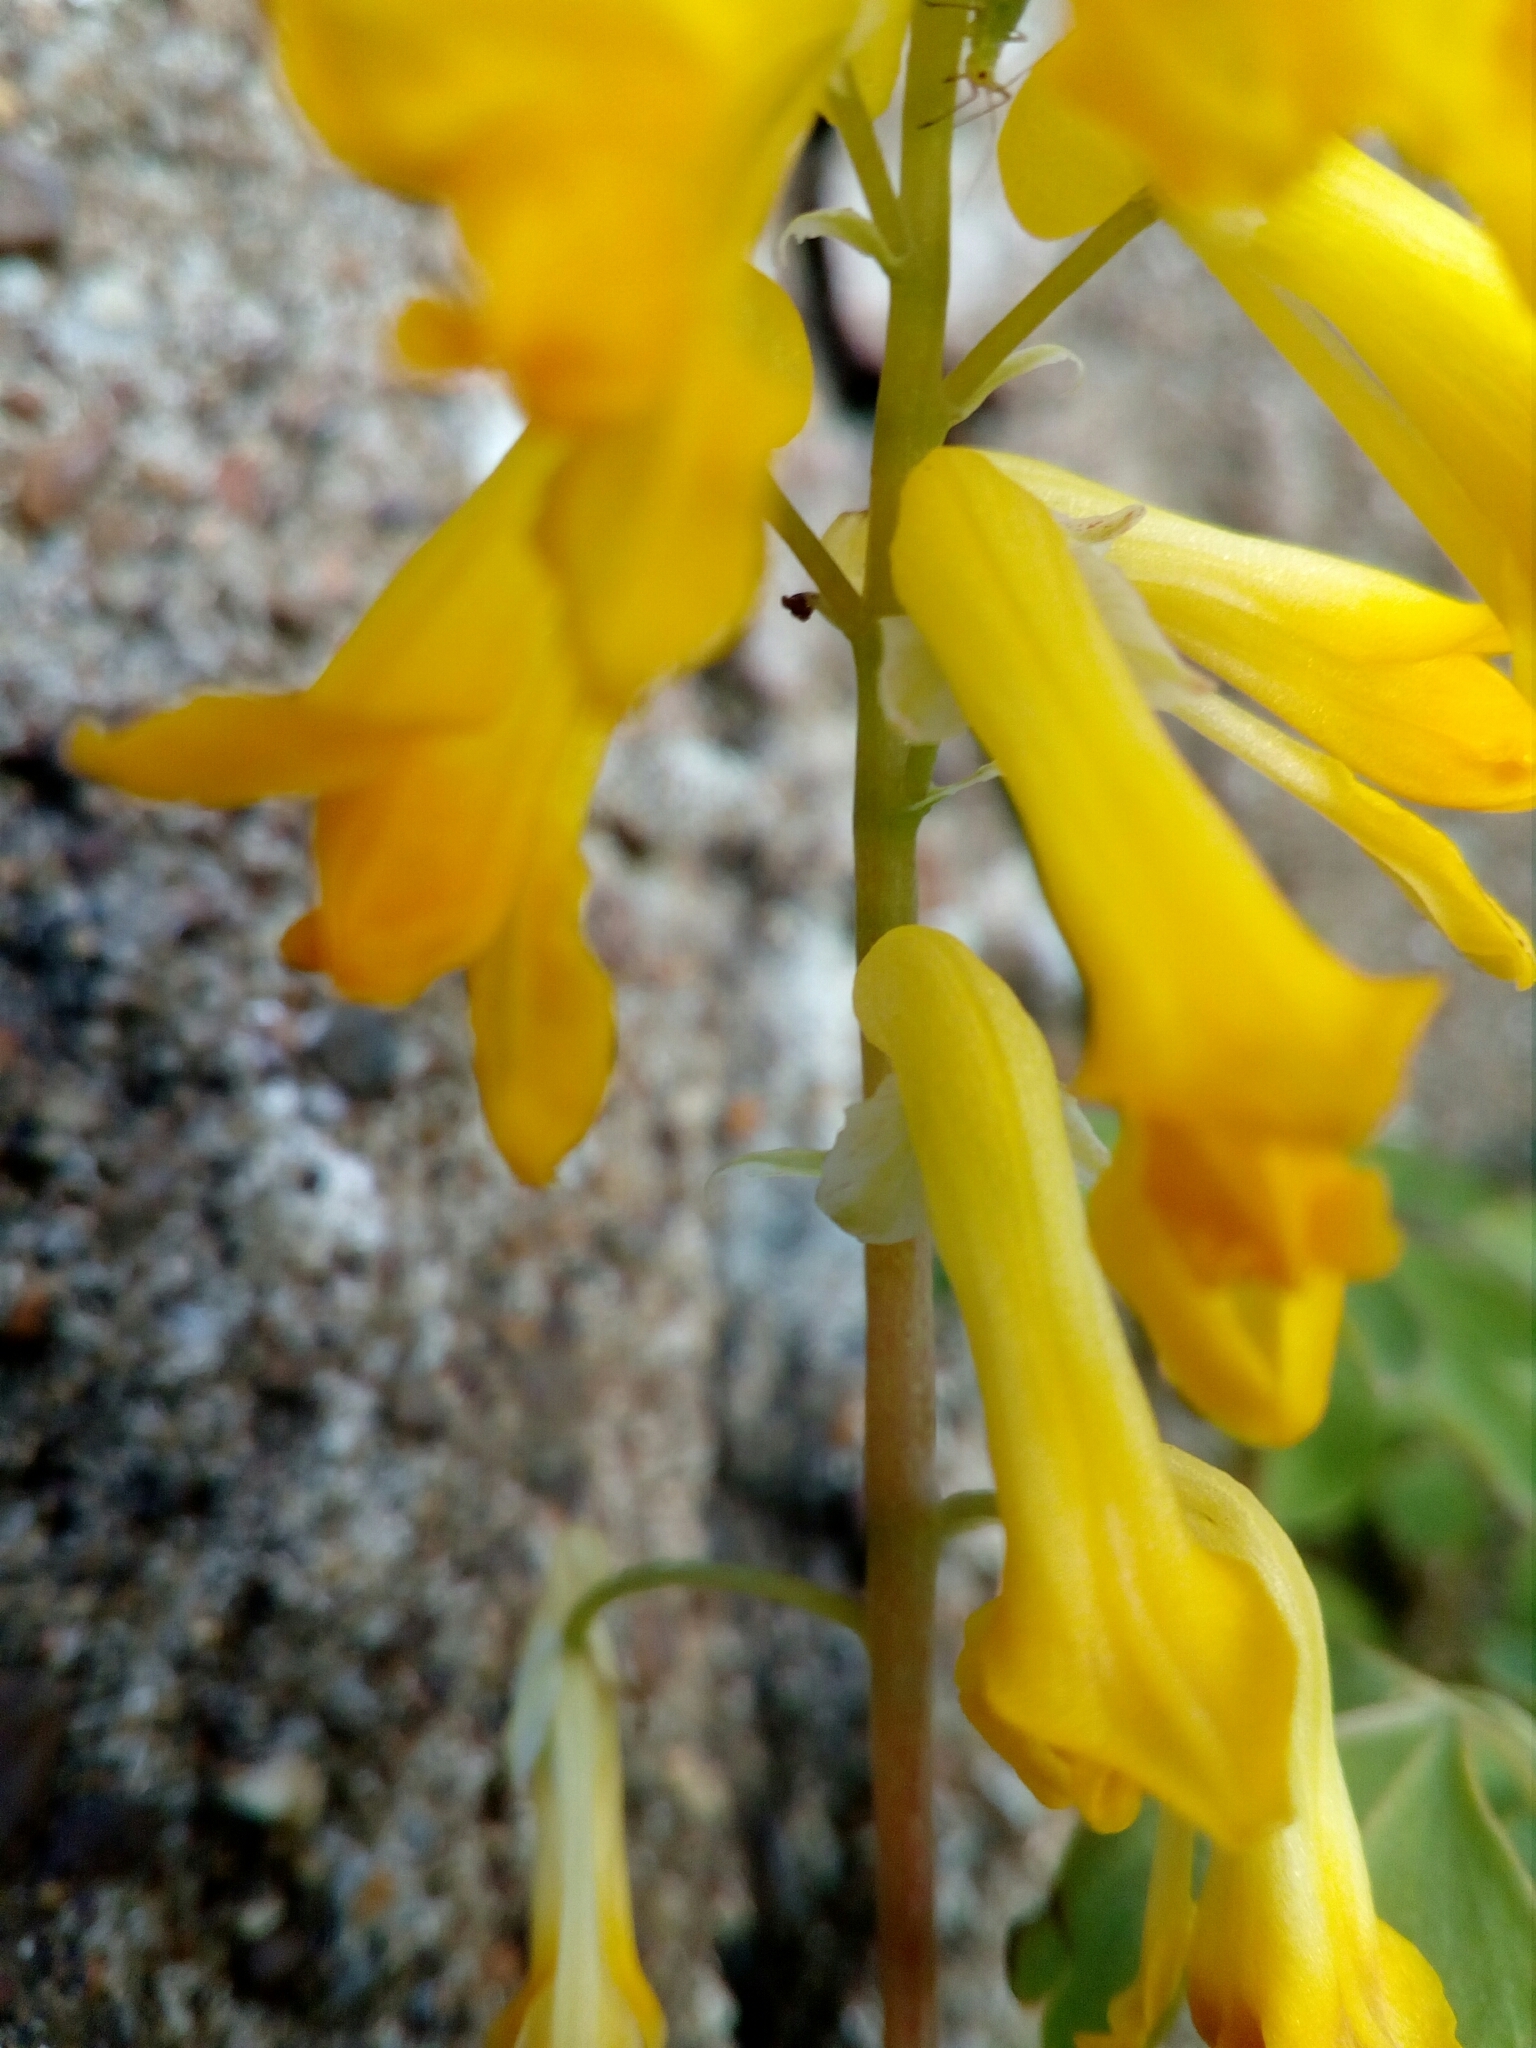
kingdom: Plantae
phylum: Tracheophyta
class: Magnoliopsida
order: Ranunculales
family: Papaveraceae
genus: Pseudofumaria
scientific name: Pseudofumaria lutea
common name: Yellow corydalis
